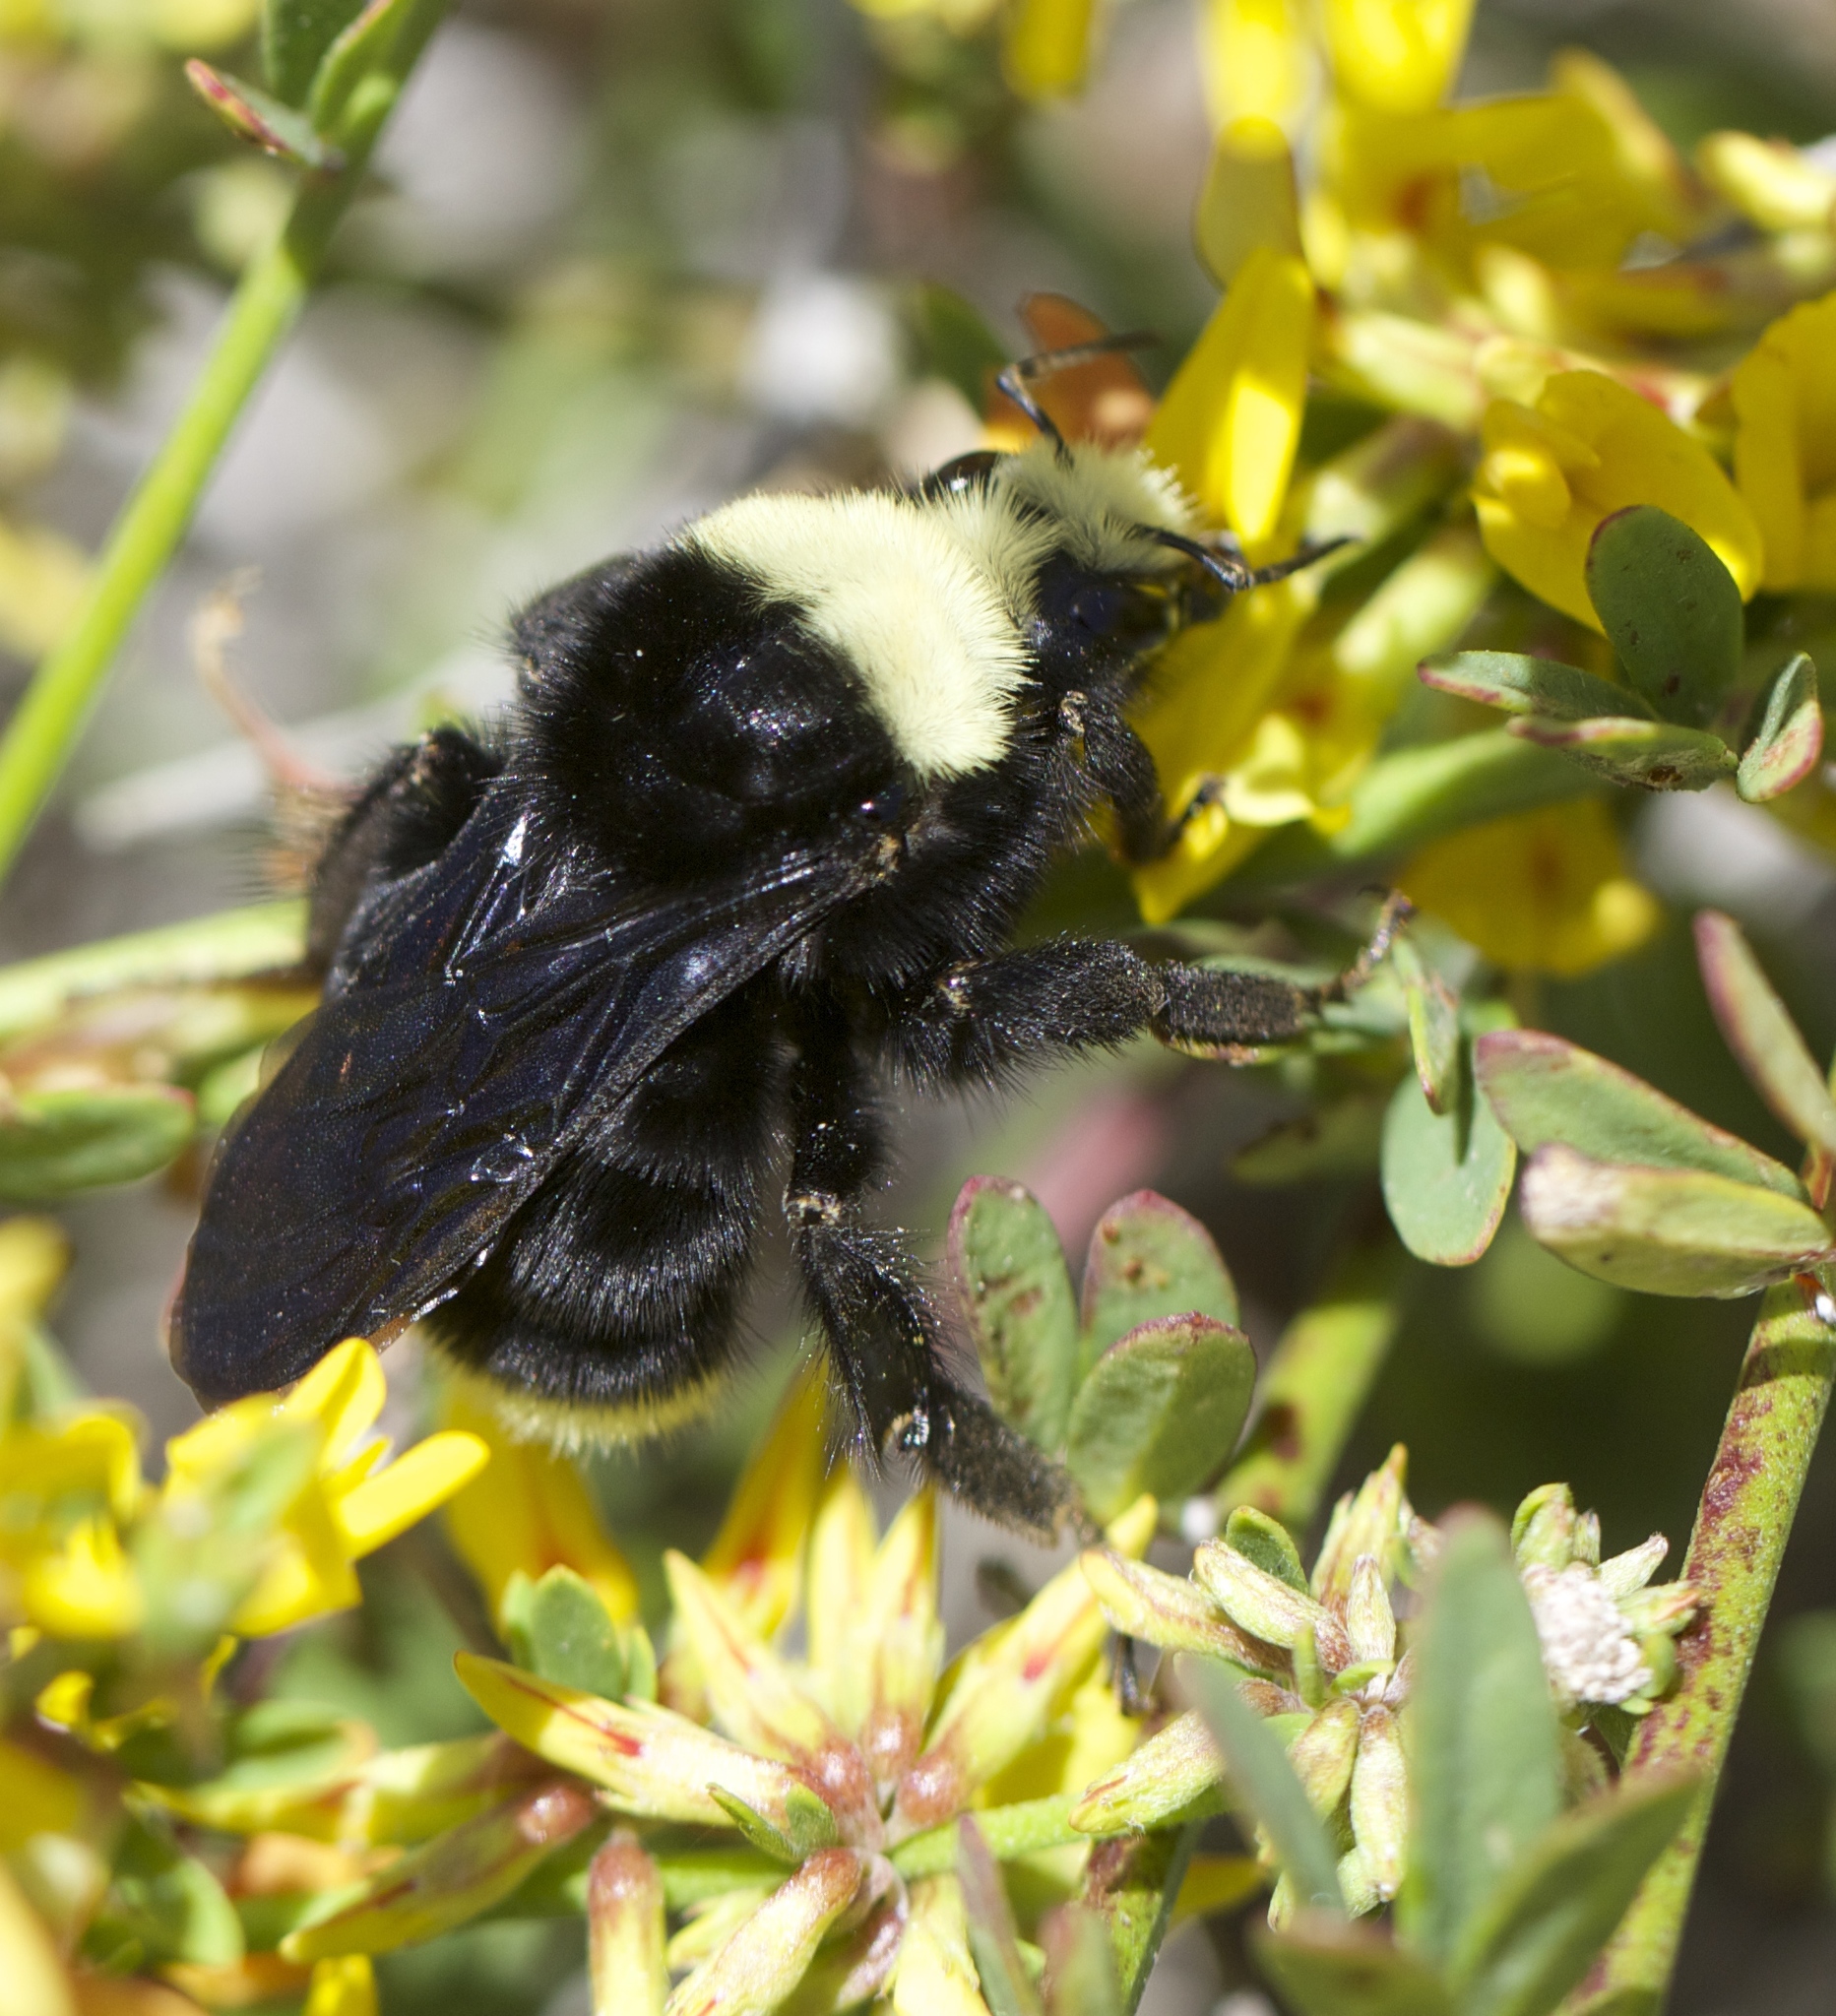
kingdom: Animalia
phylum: Arthropoda
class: Insecta
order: Hymenoptera
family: Apidae
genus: Bombus
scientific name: Bombus vosnesenskii
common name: Vosnesensky bumble bee
